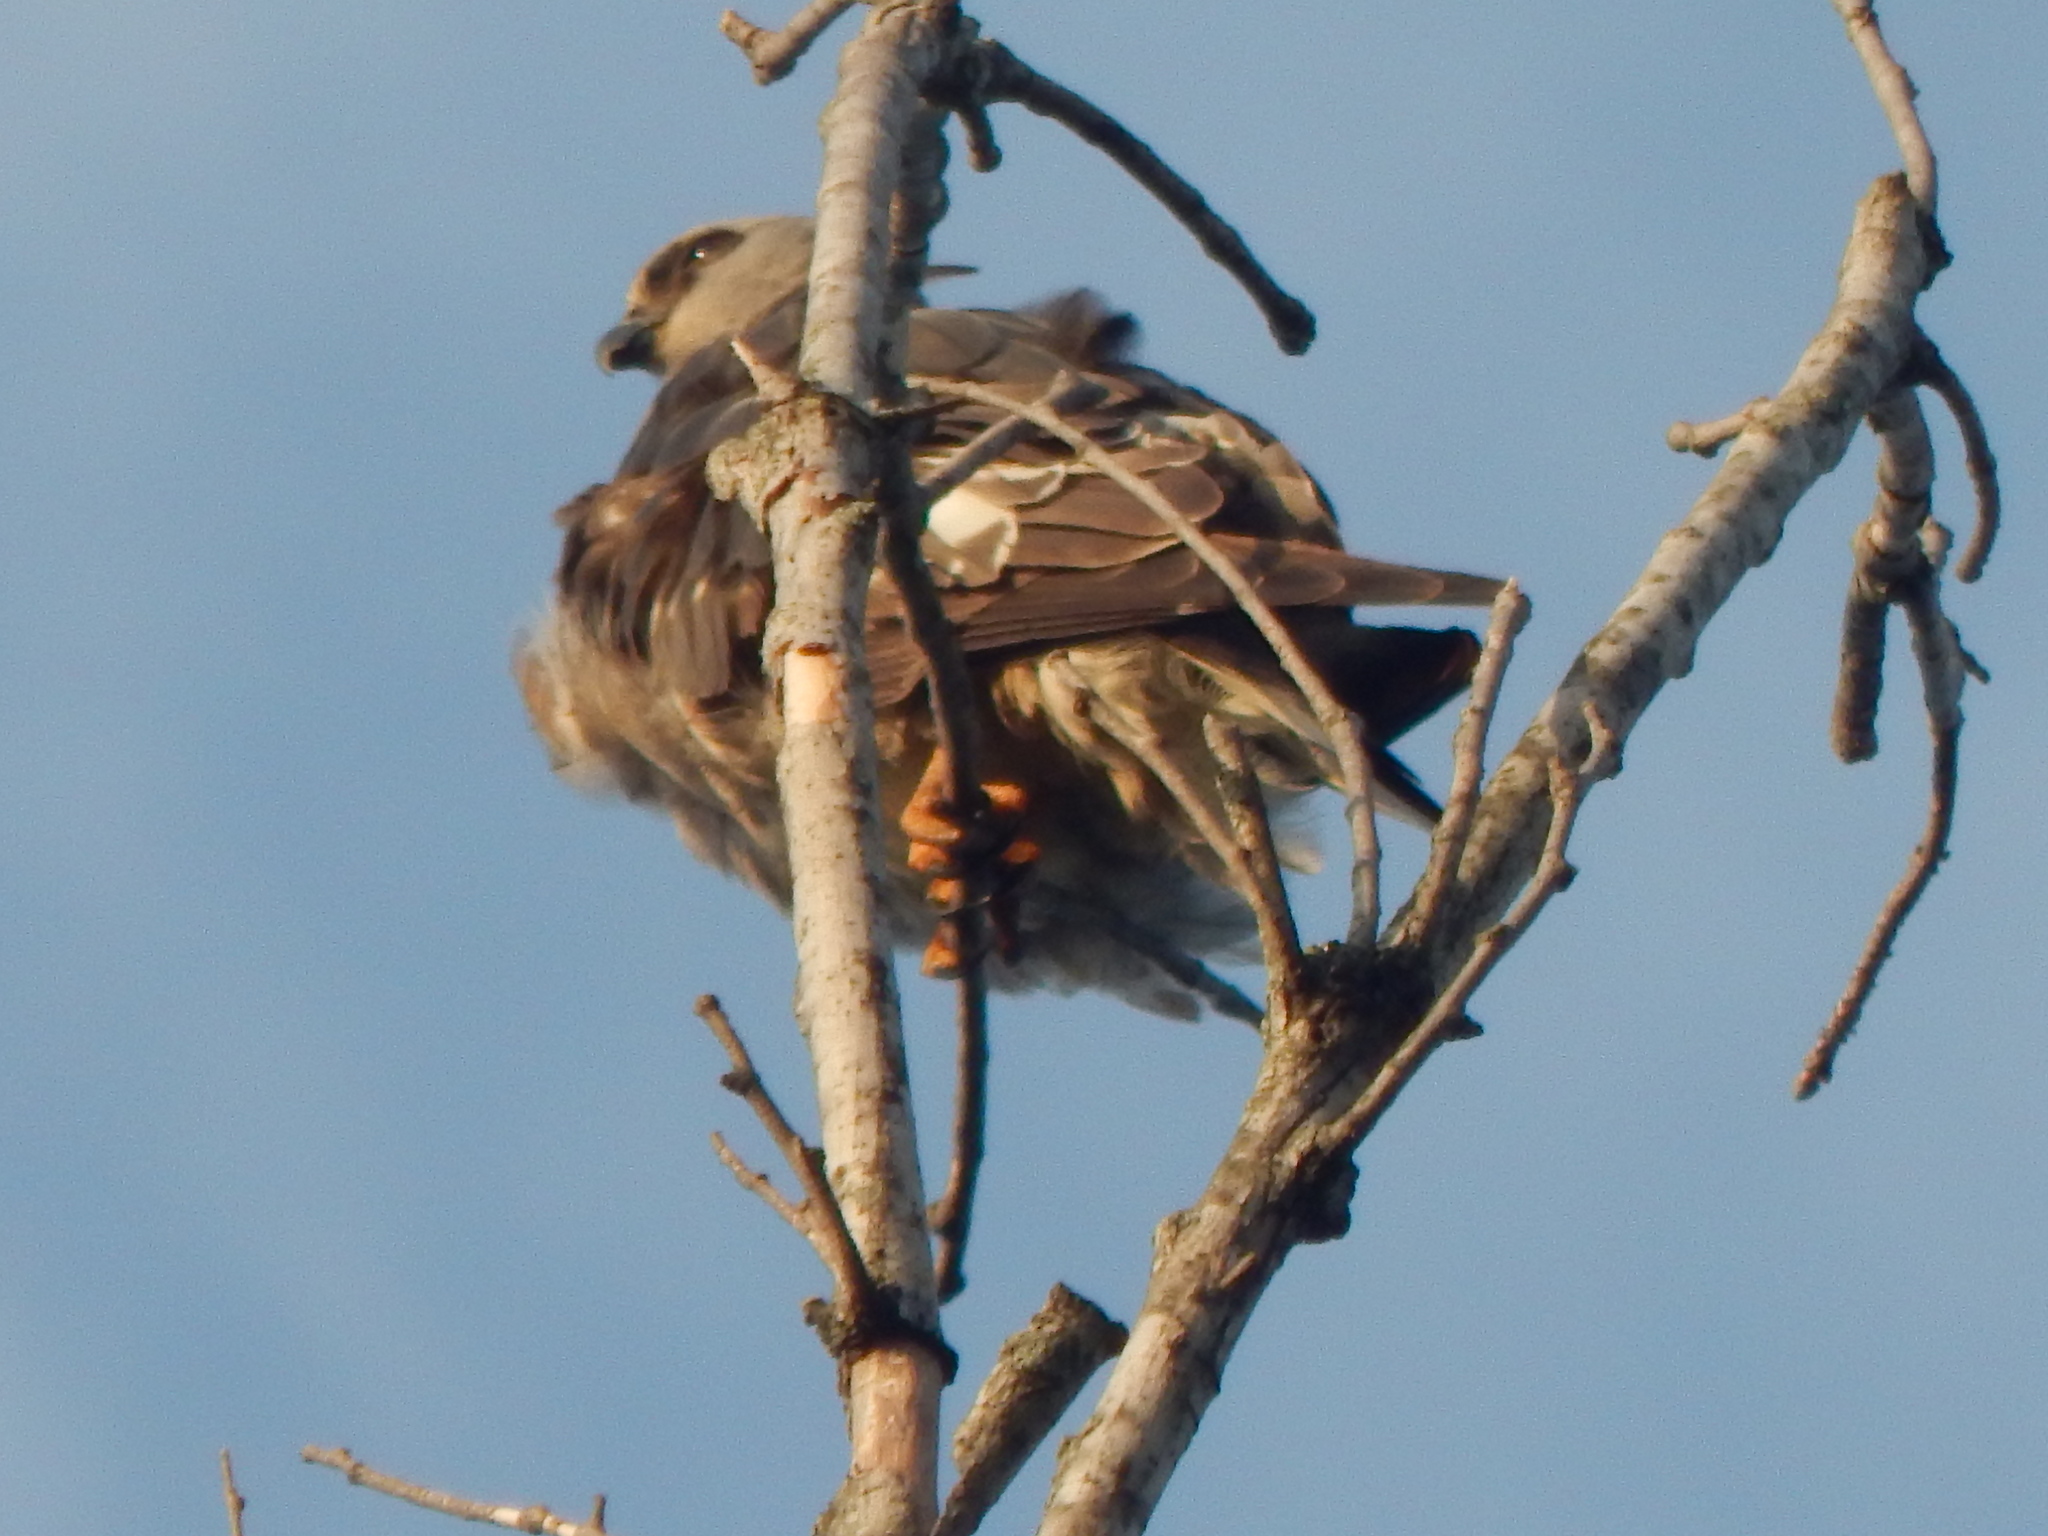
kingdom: Animalia
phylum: Chordata
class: Aves
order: Accipitriformes
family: Accipitridae
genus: Ictinia
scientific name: Ictinia mississippiensis
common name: Mississippi kite
